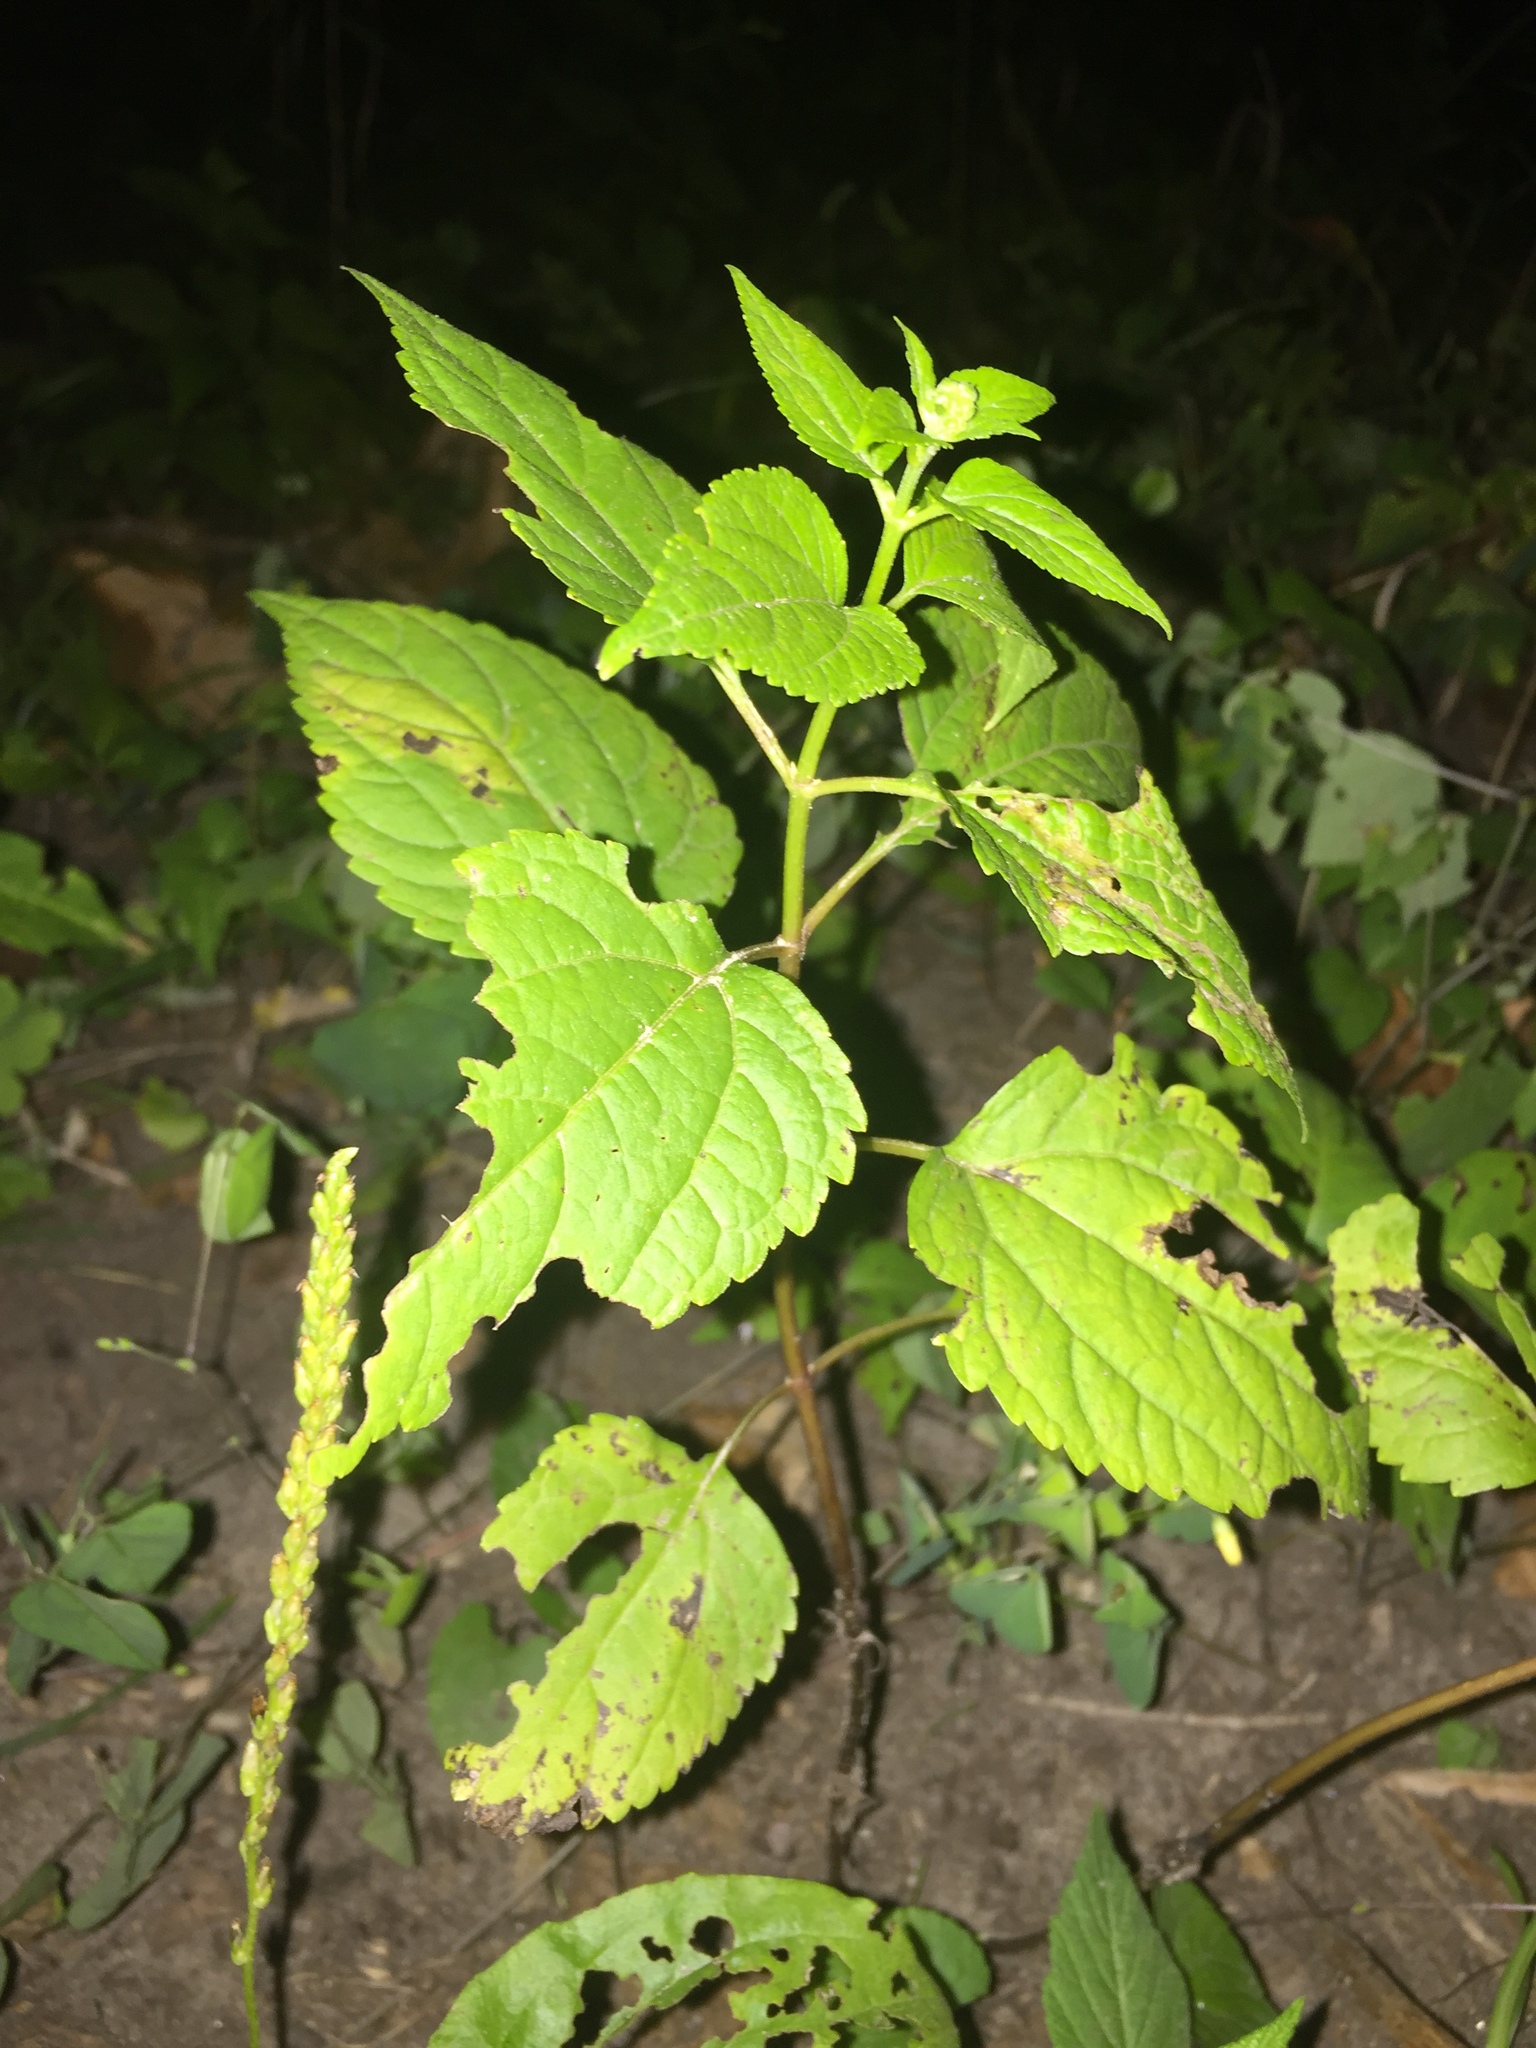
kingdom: Plantae
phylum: Tracheophyta
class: Magnoliopsida
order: Asterales
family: Asteraceae
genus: Ageratina
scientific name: Ageratina altissima
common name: White snakeroot
